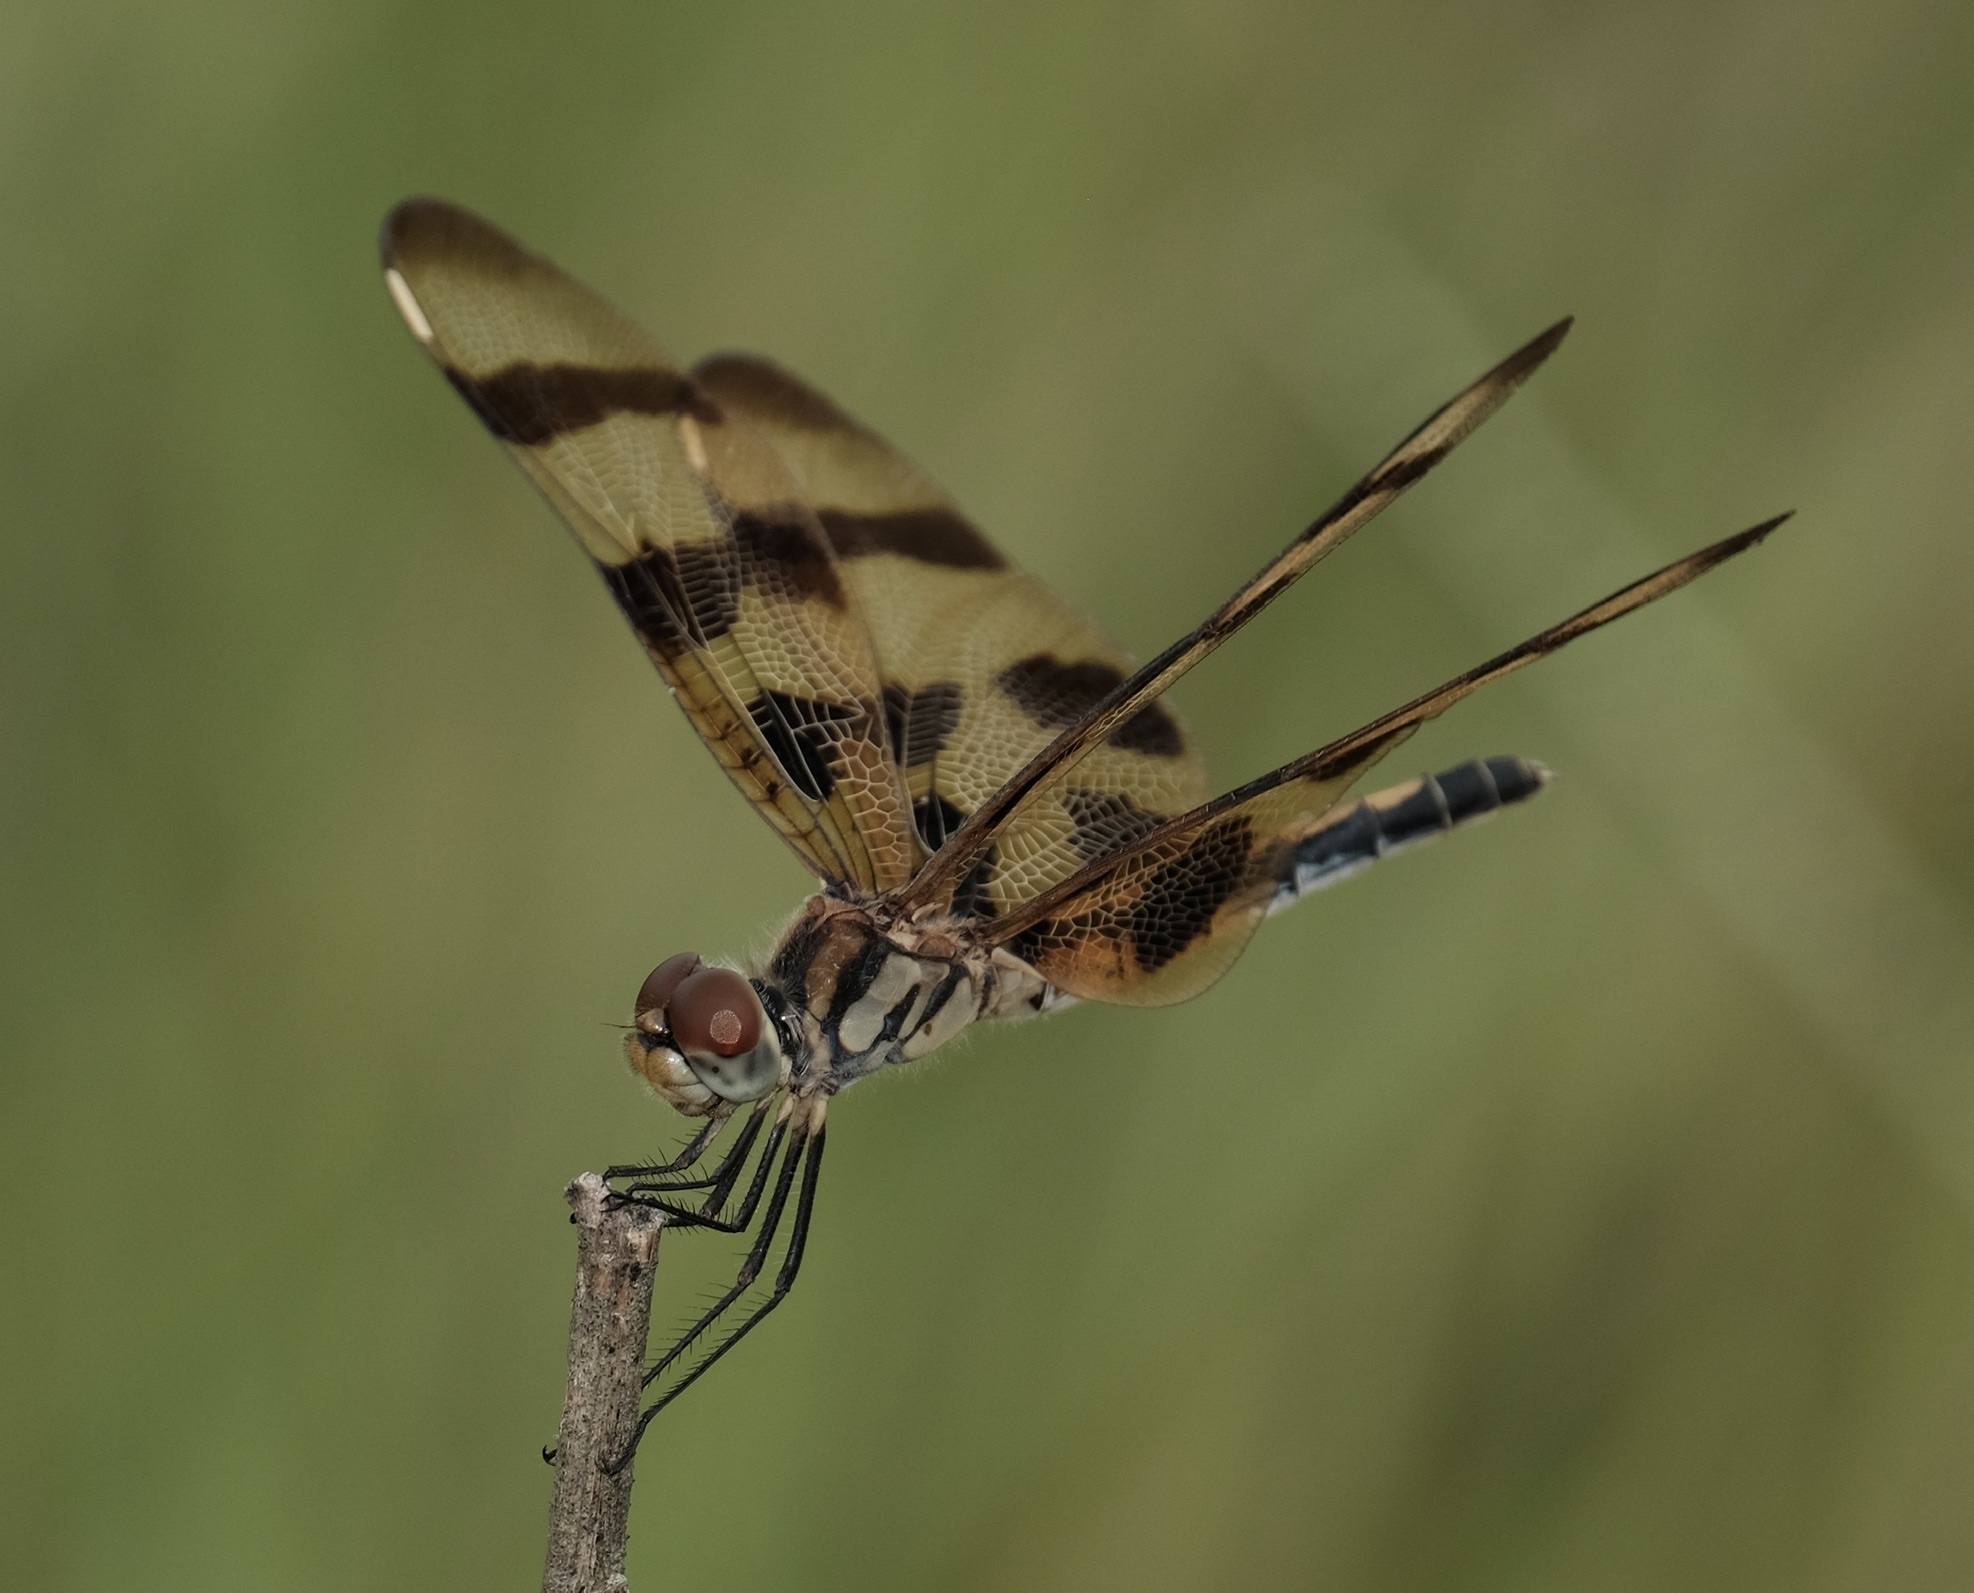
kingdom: Animalia
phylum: Arthropoda
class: Insecta
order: Odonata
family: Libellulidae
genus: Celithemis
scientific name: Celithemis eponina
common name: Halloween pennant
